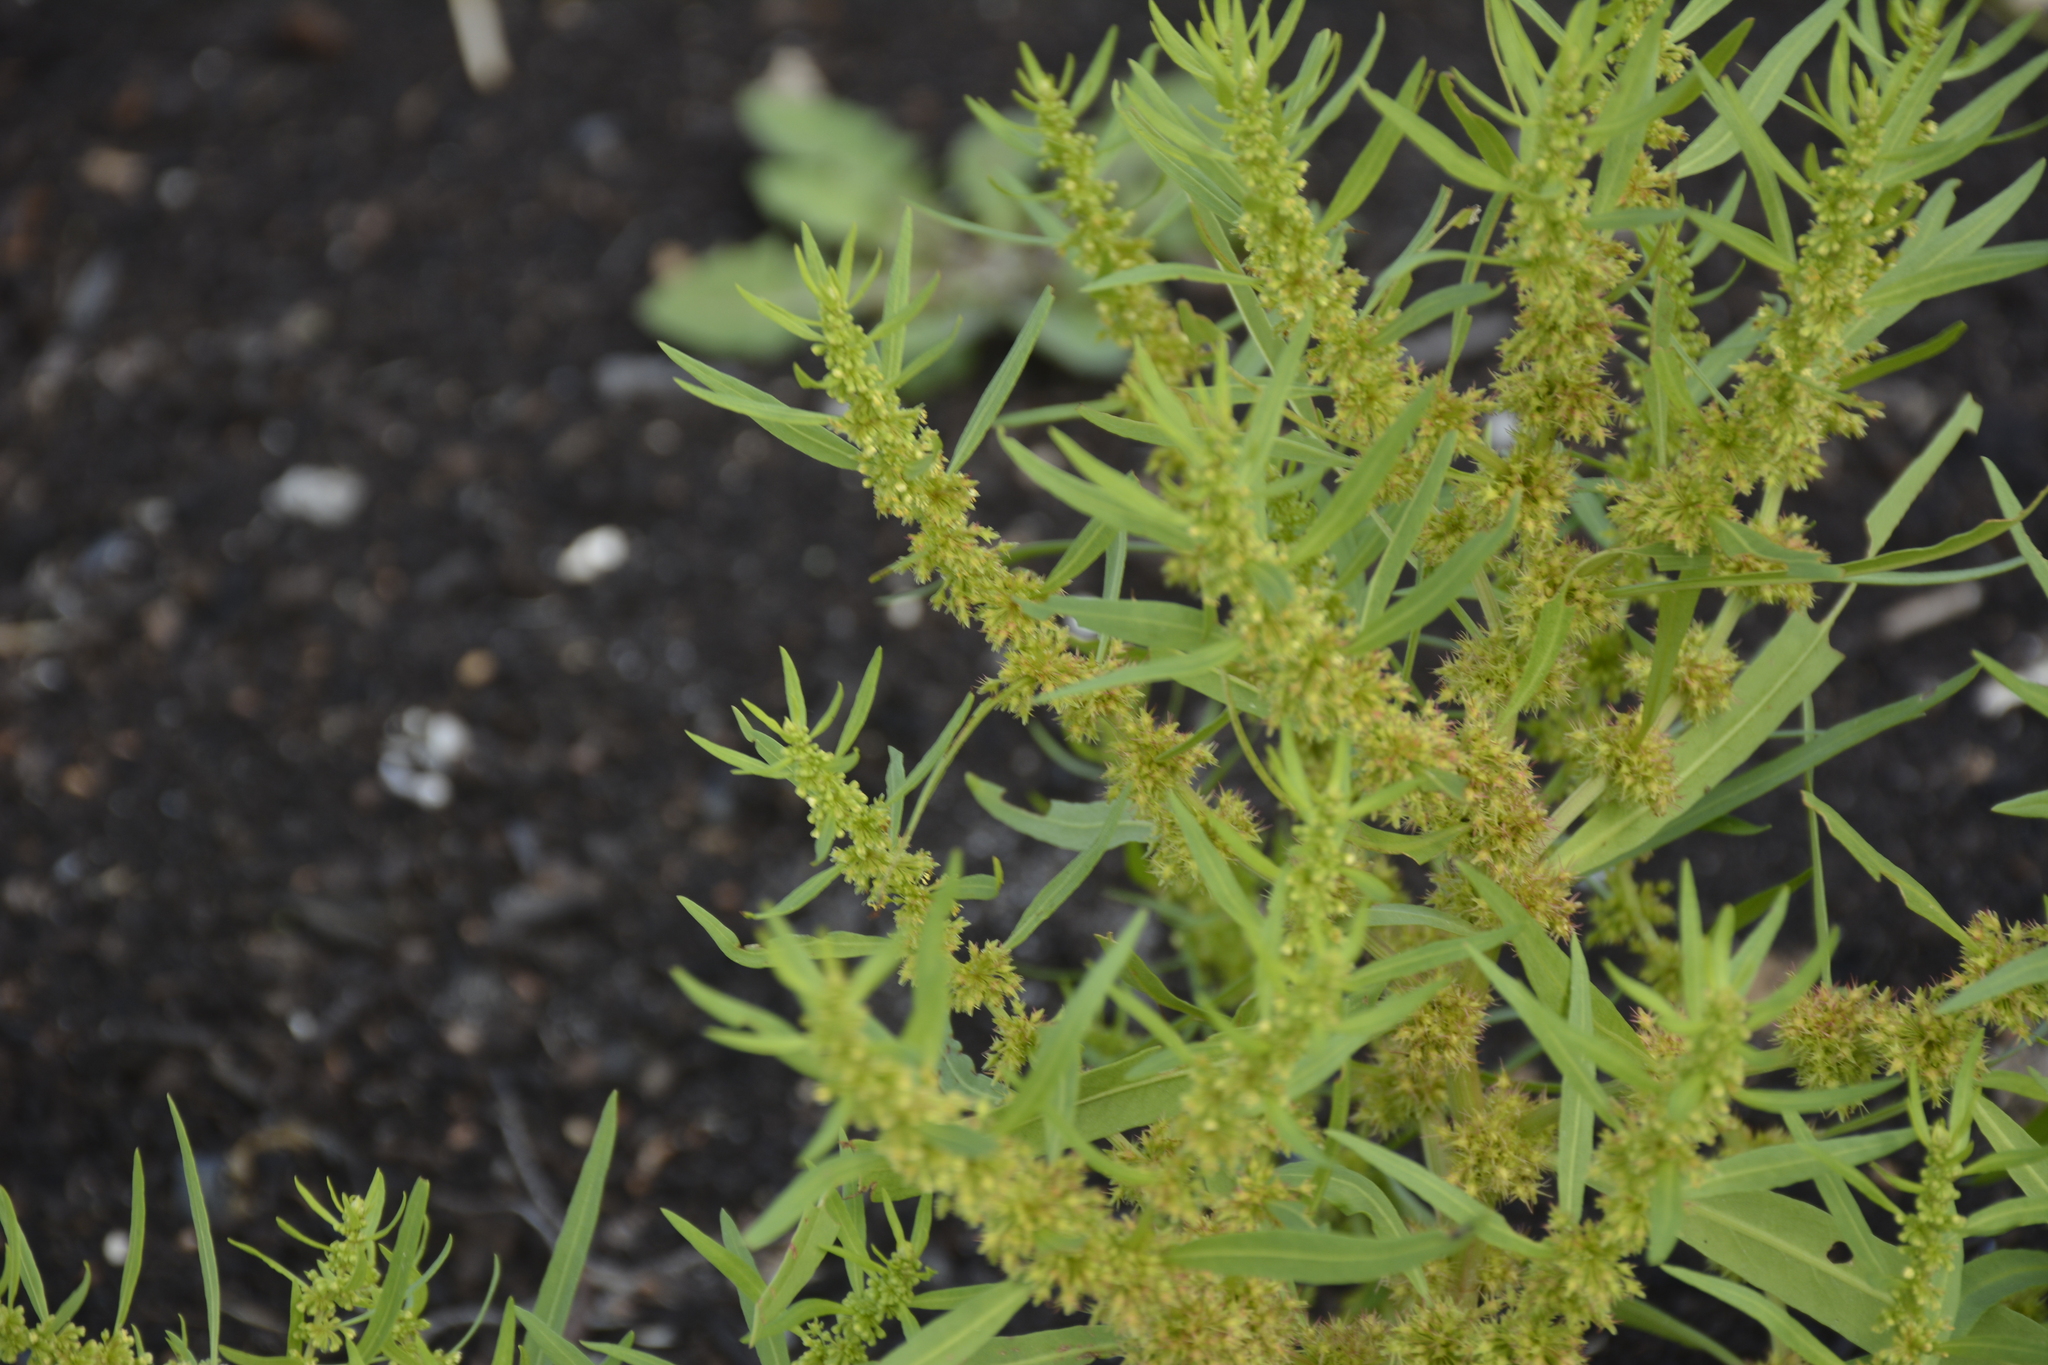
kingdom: Plantae
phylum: Tracheophyta
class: Magnoliopsida
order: Caryophyllales
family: Polygonaceae
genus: Rumex
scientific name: Rumex maritimus
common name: Golden dock
